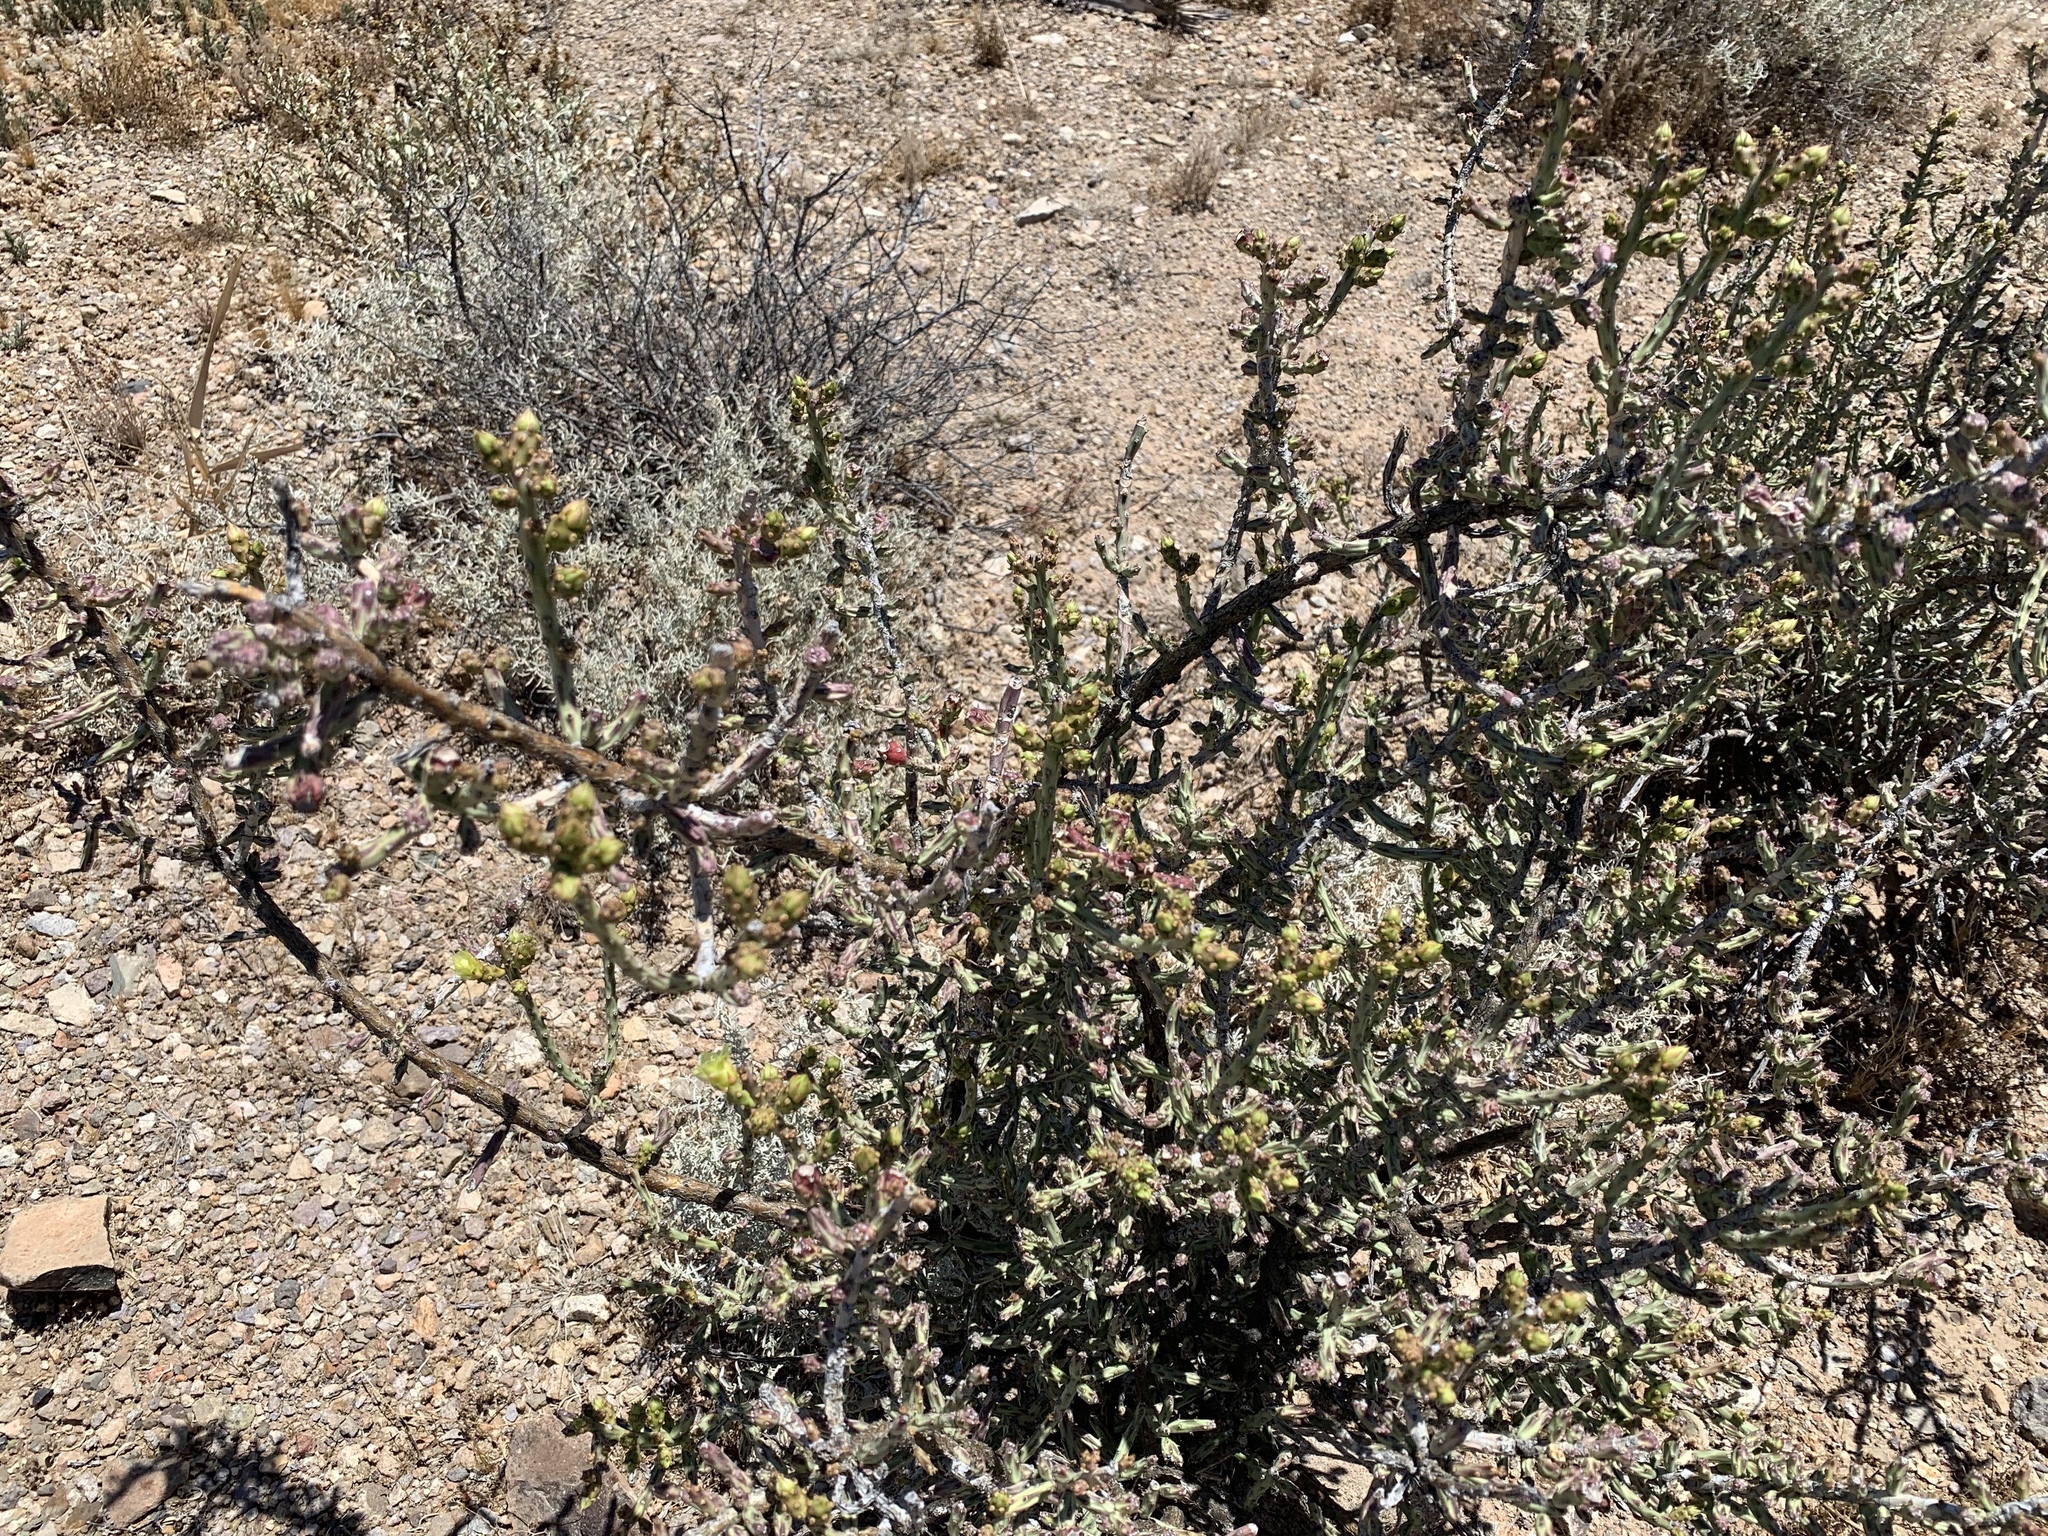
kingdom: Plantae
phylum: Tracheophyta
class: Magnoliopsida
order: Caryophyllales
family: Cactaceae
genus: Cylindropuntia
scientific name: Cylindropuntia leptocaulis
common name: Christmas cactus
